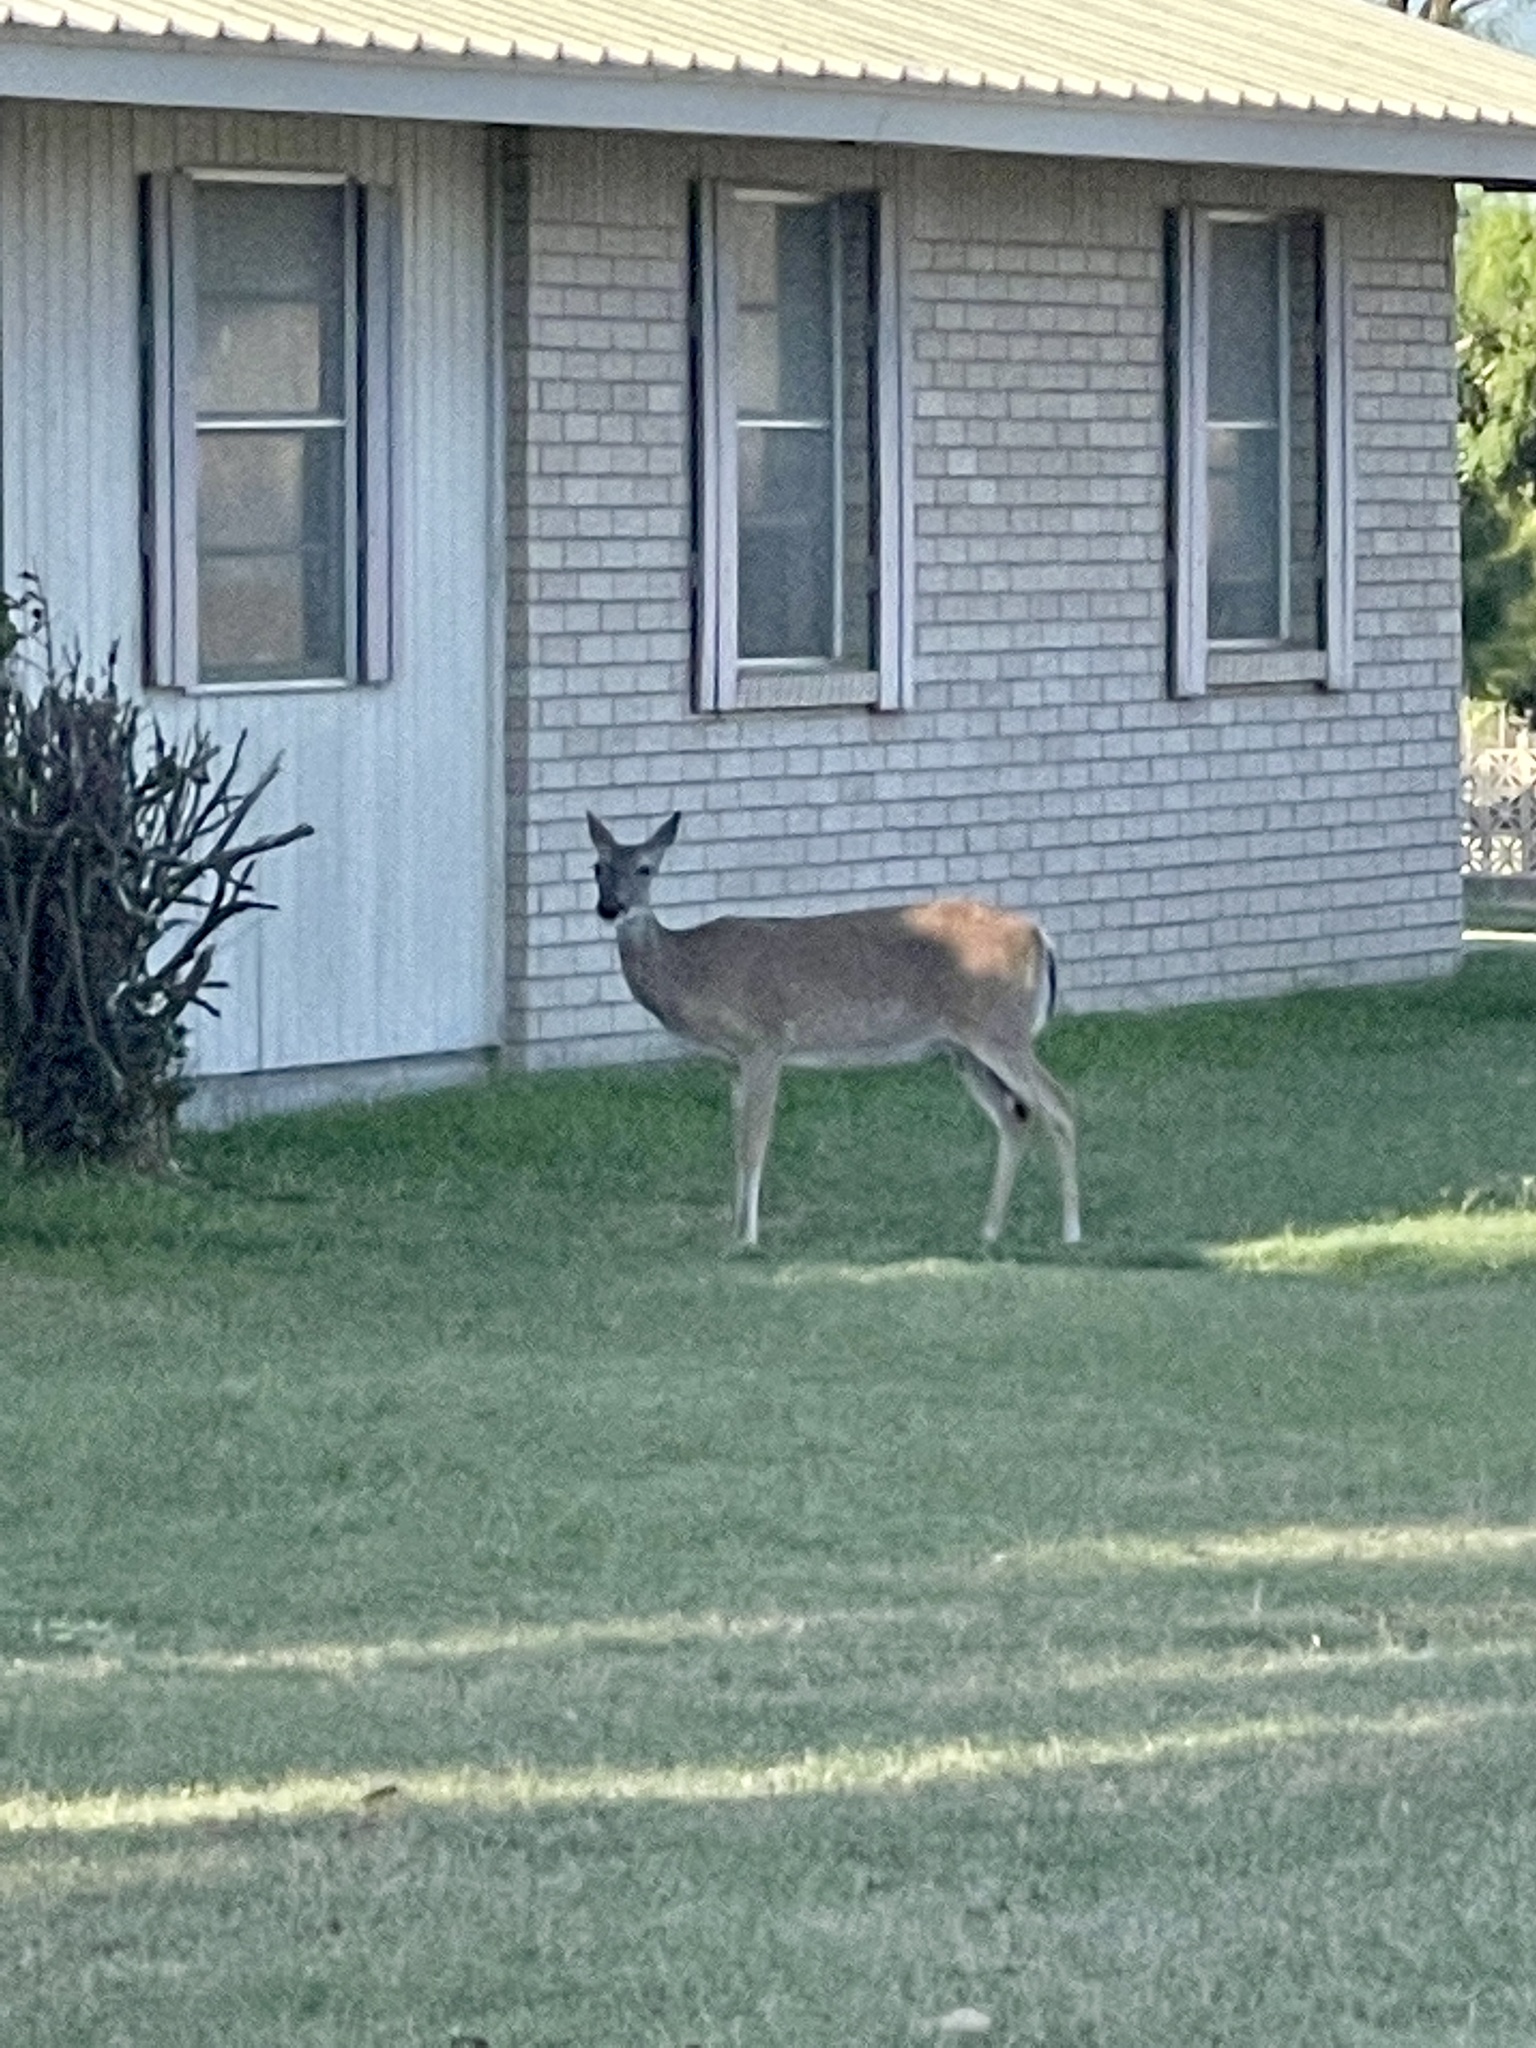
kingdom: Animalia
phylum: Chordata
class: Mammalia
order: Artiodactyla
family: Cervidae
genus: Odocoileus
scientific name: Odocoileus virginianus
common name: White-tailed deer
